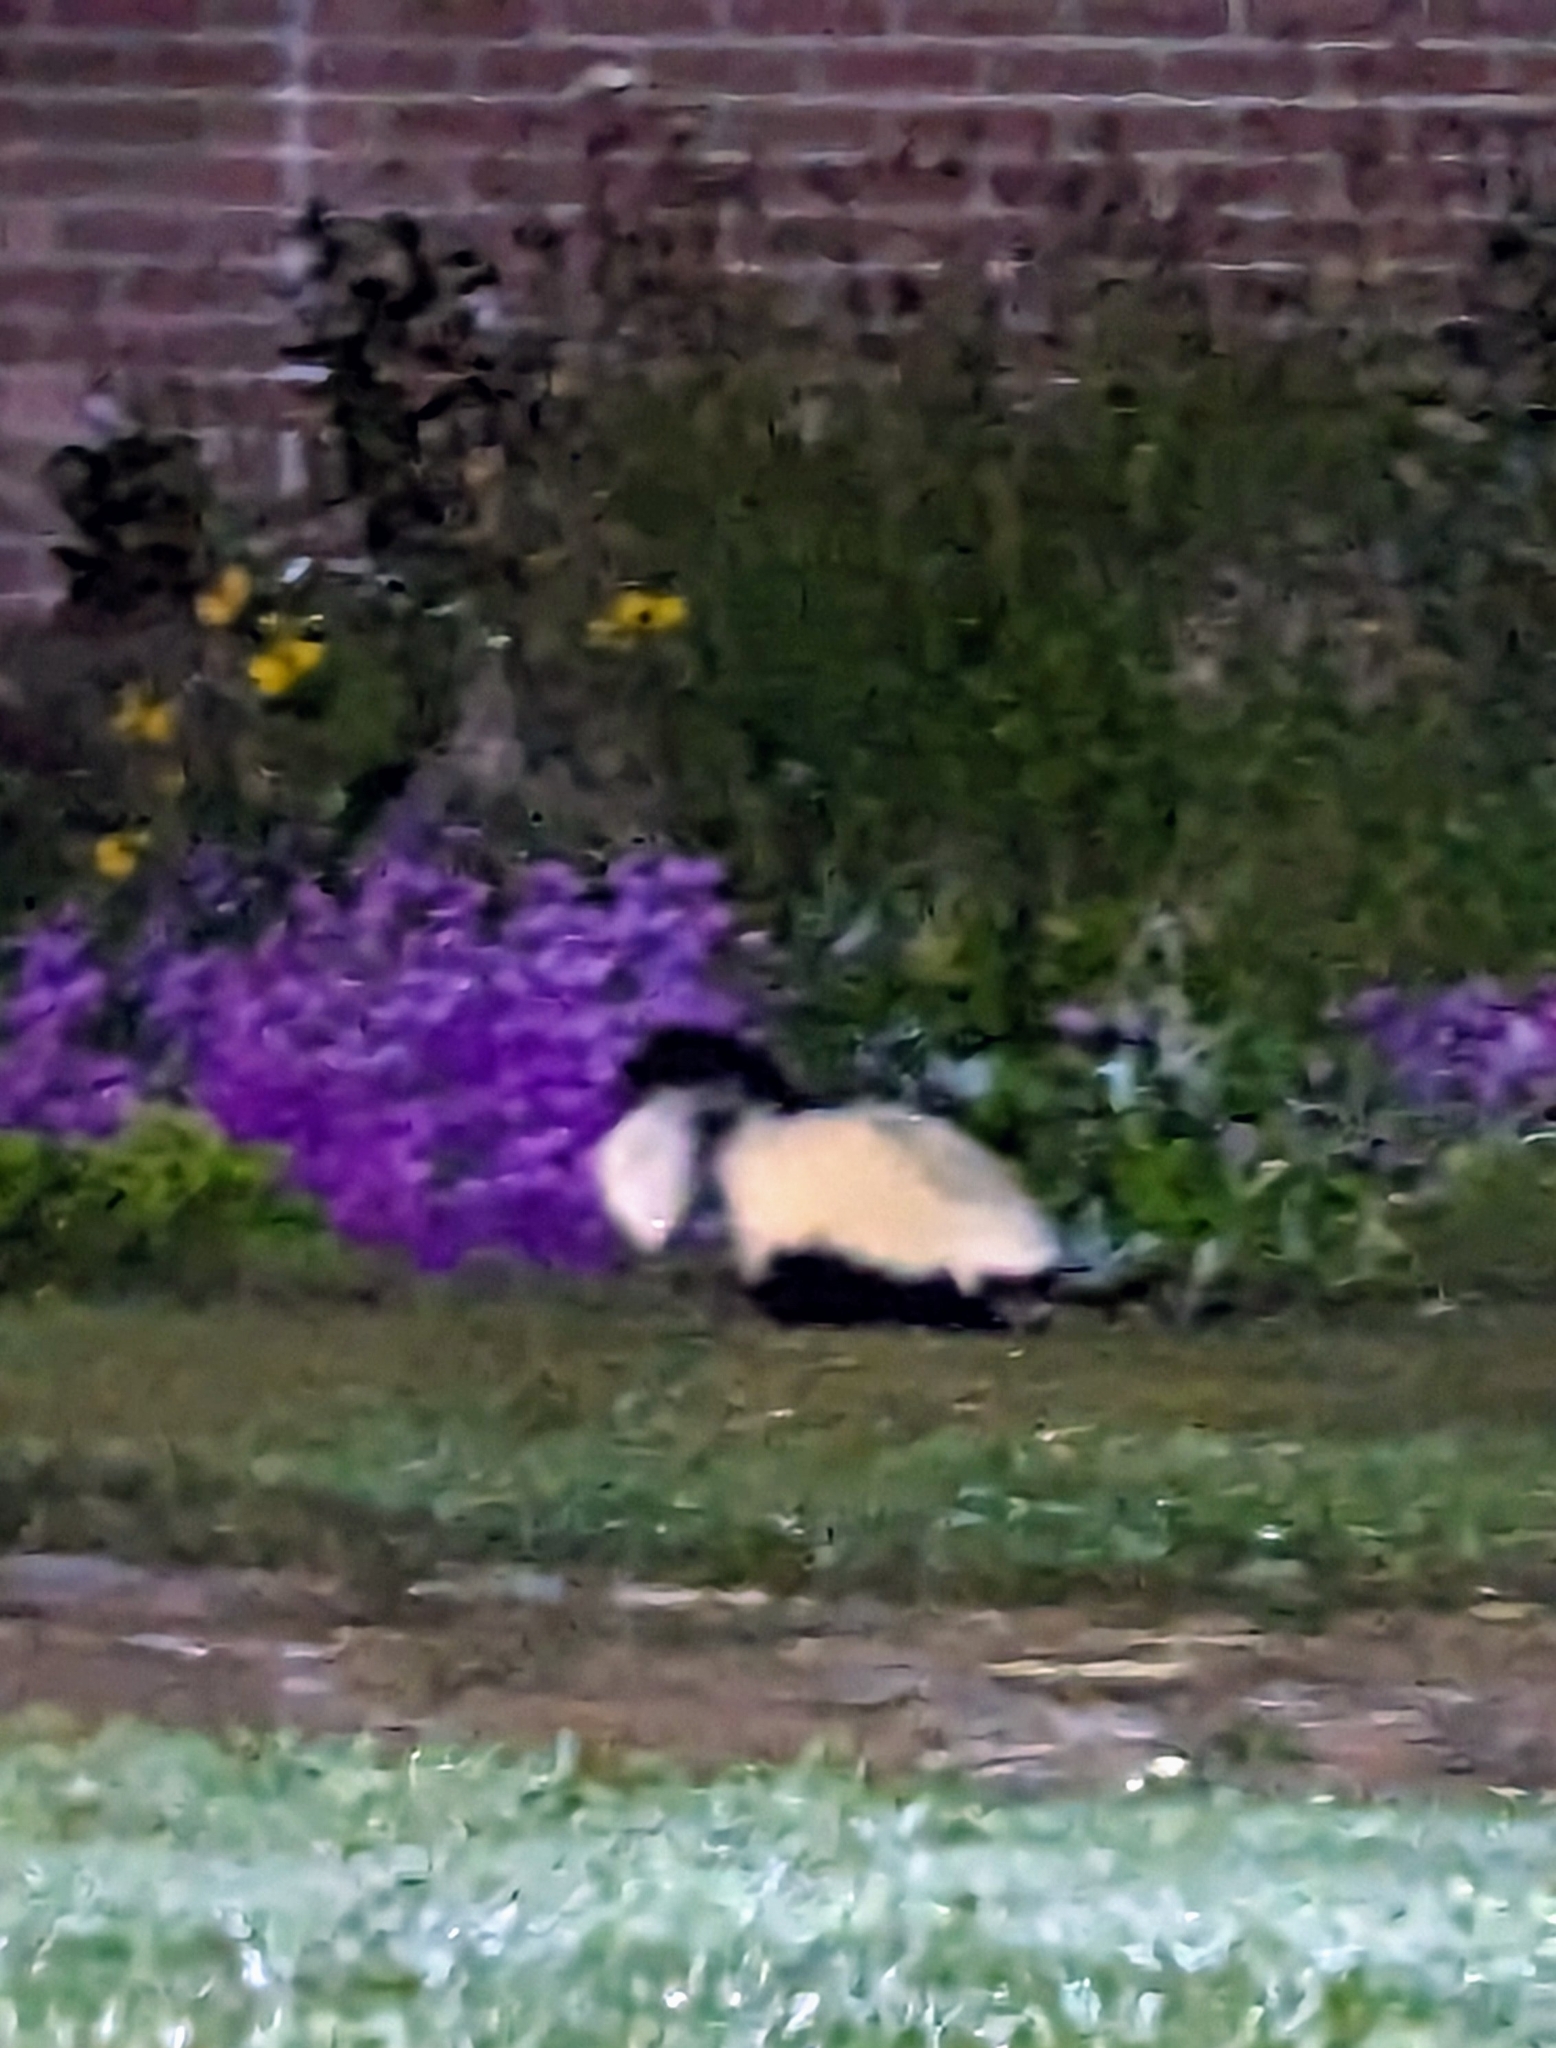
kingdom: Animalia
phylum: Chordata
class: Mammalia
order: Carnivora
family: Mephitidae
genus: Mephitis
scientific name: Mephitis mephitis
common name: Striped skunk
